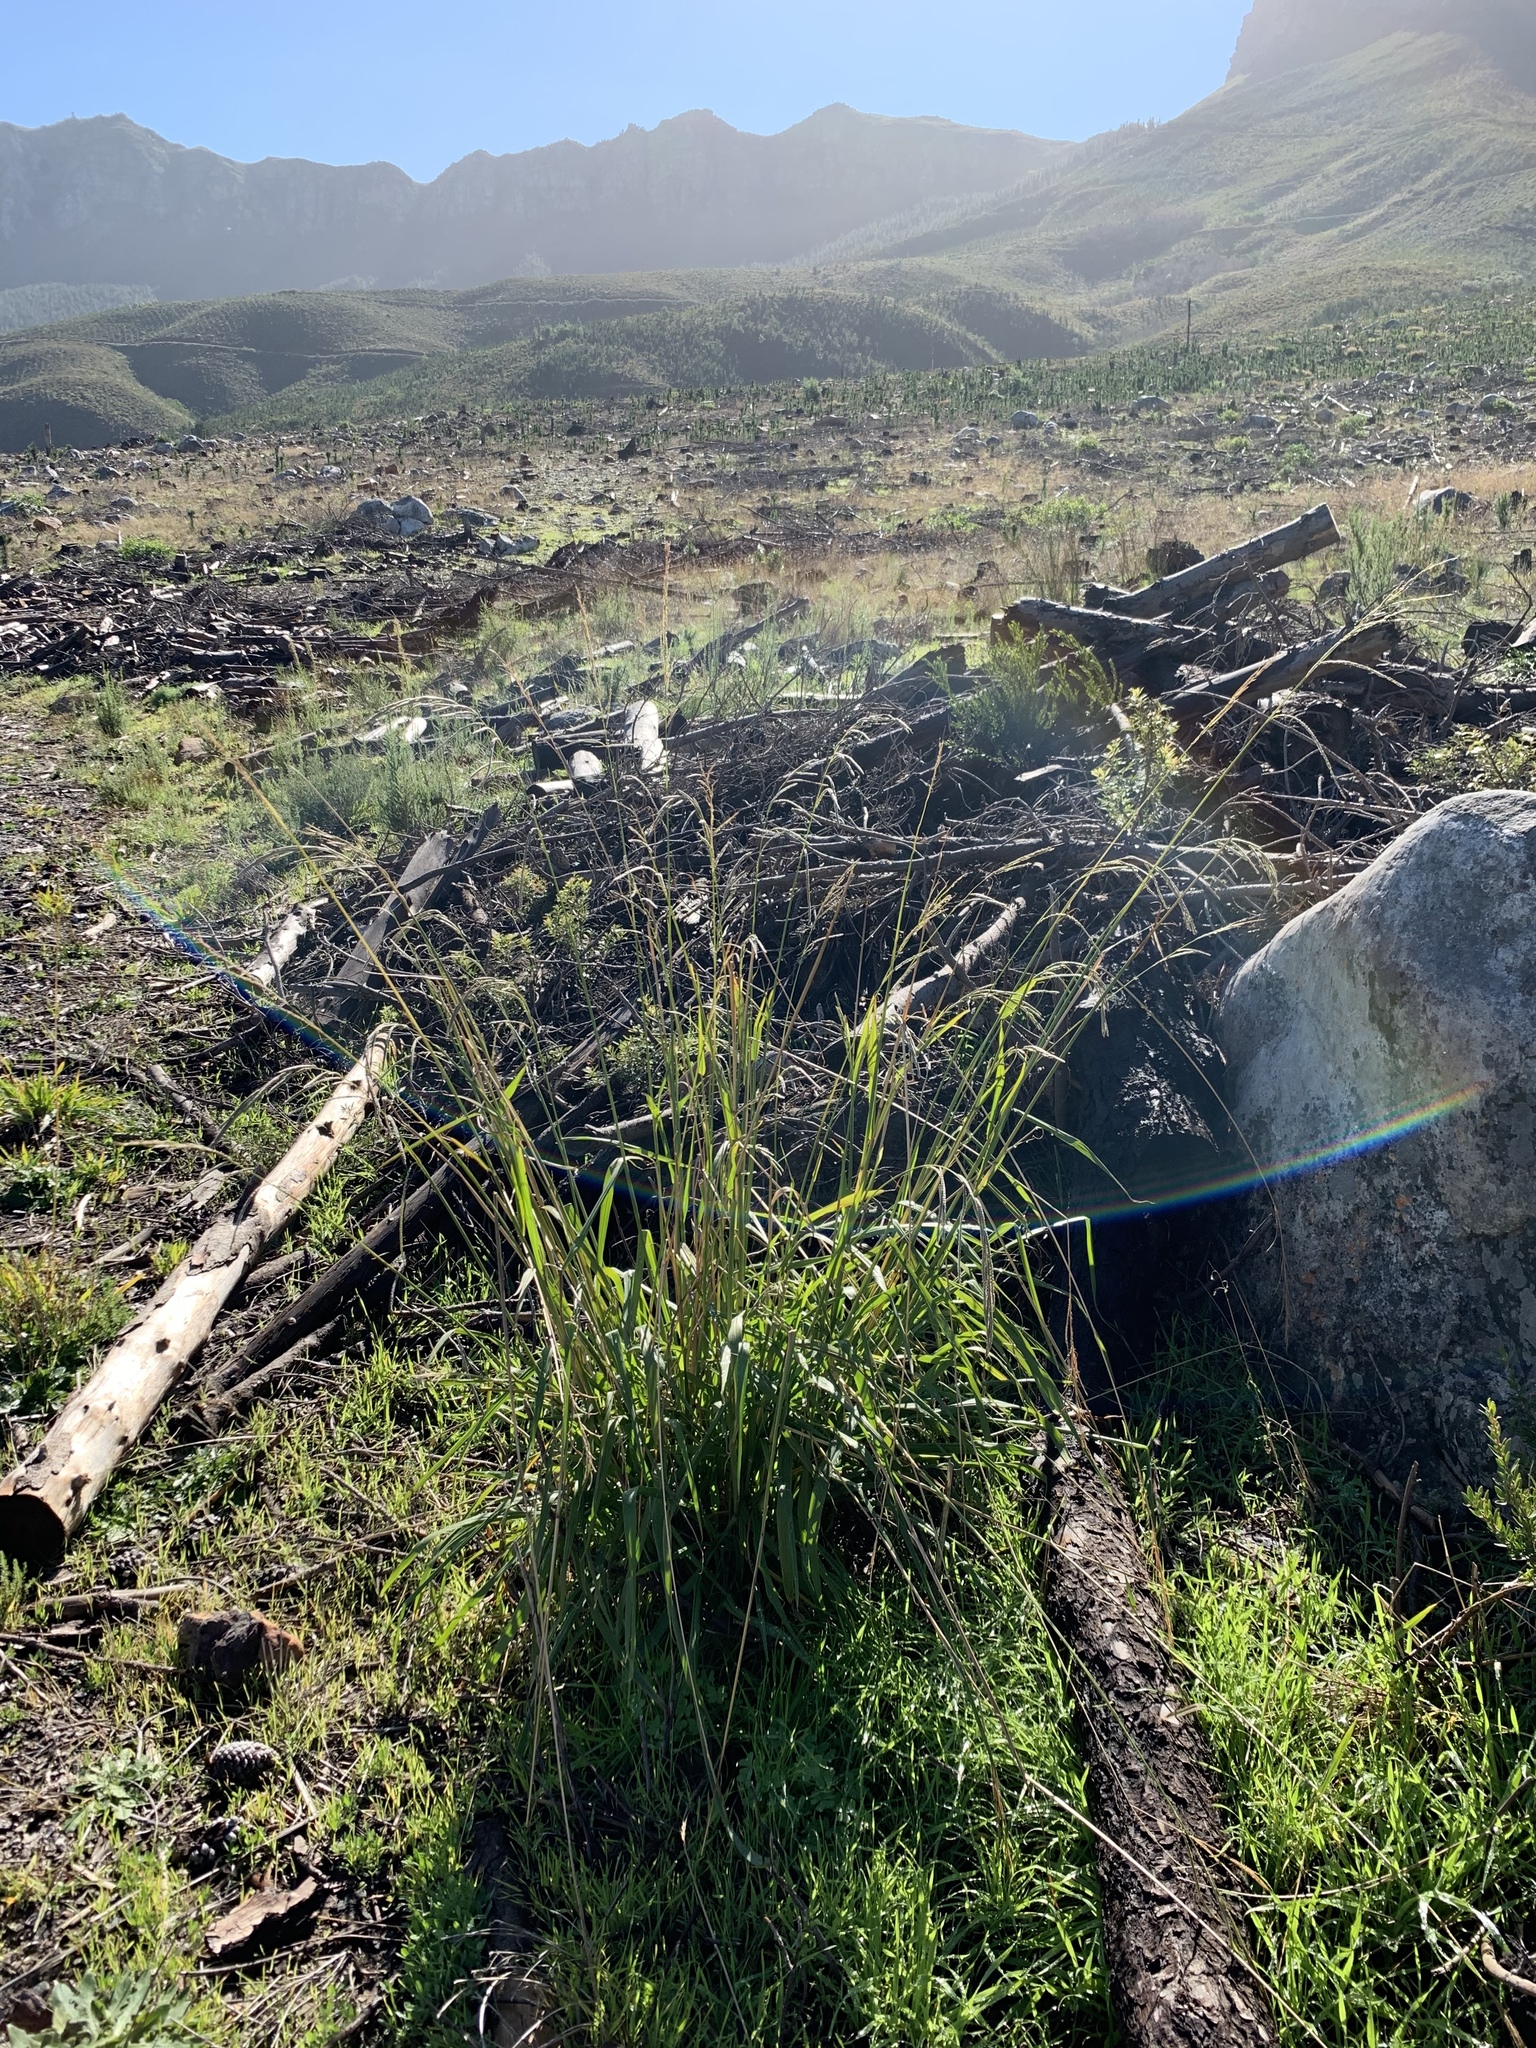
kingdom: Plantae
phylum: Tracheophyta
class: Liliopsida
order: Poales
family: Poaceae
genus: Paspalum
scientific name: Paspalum urvillei
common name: Vasey's grass
